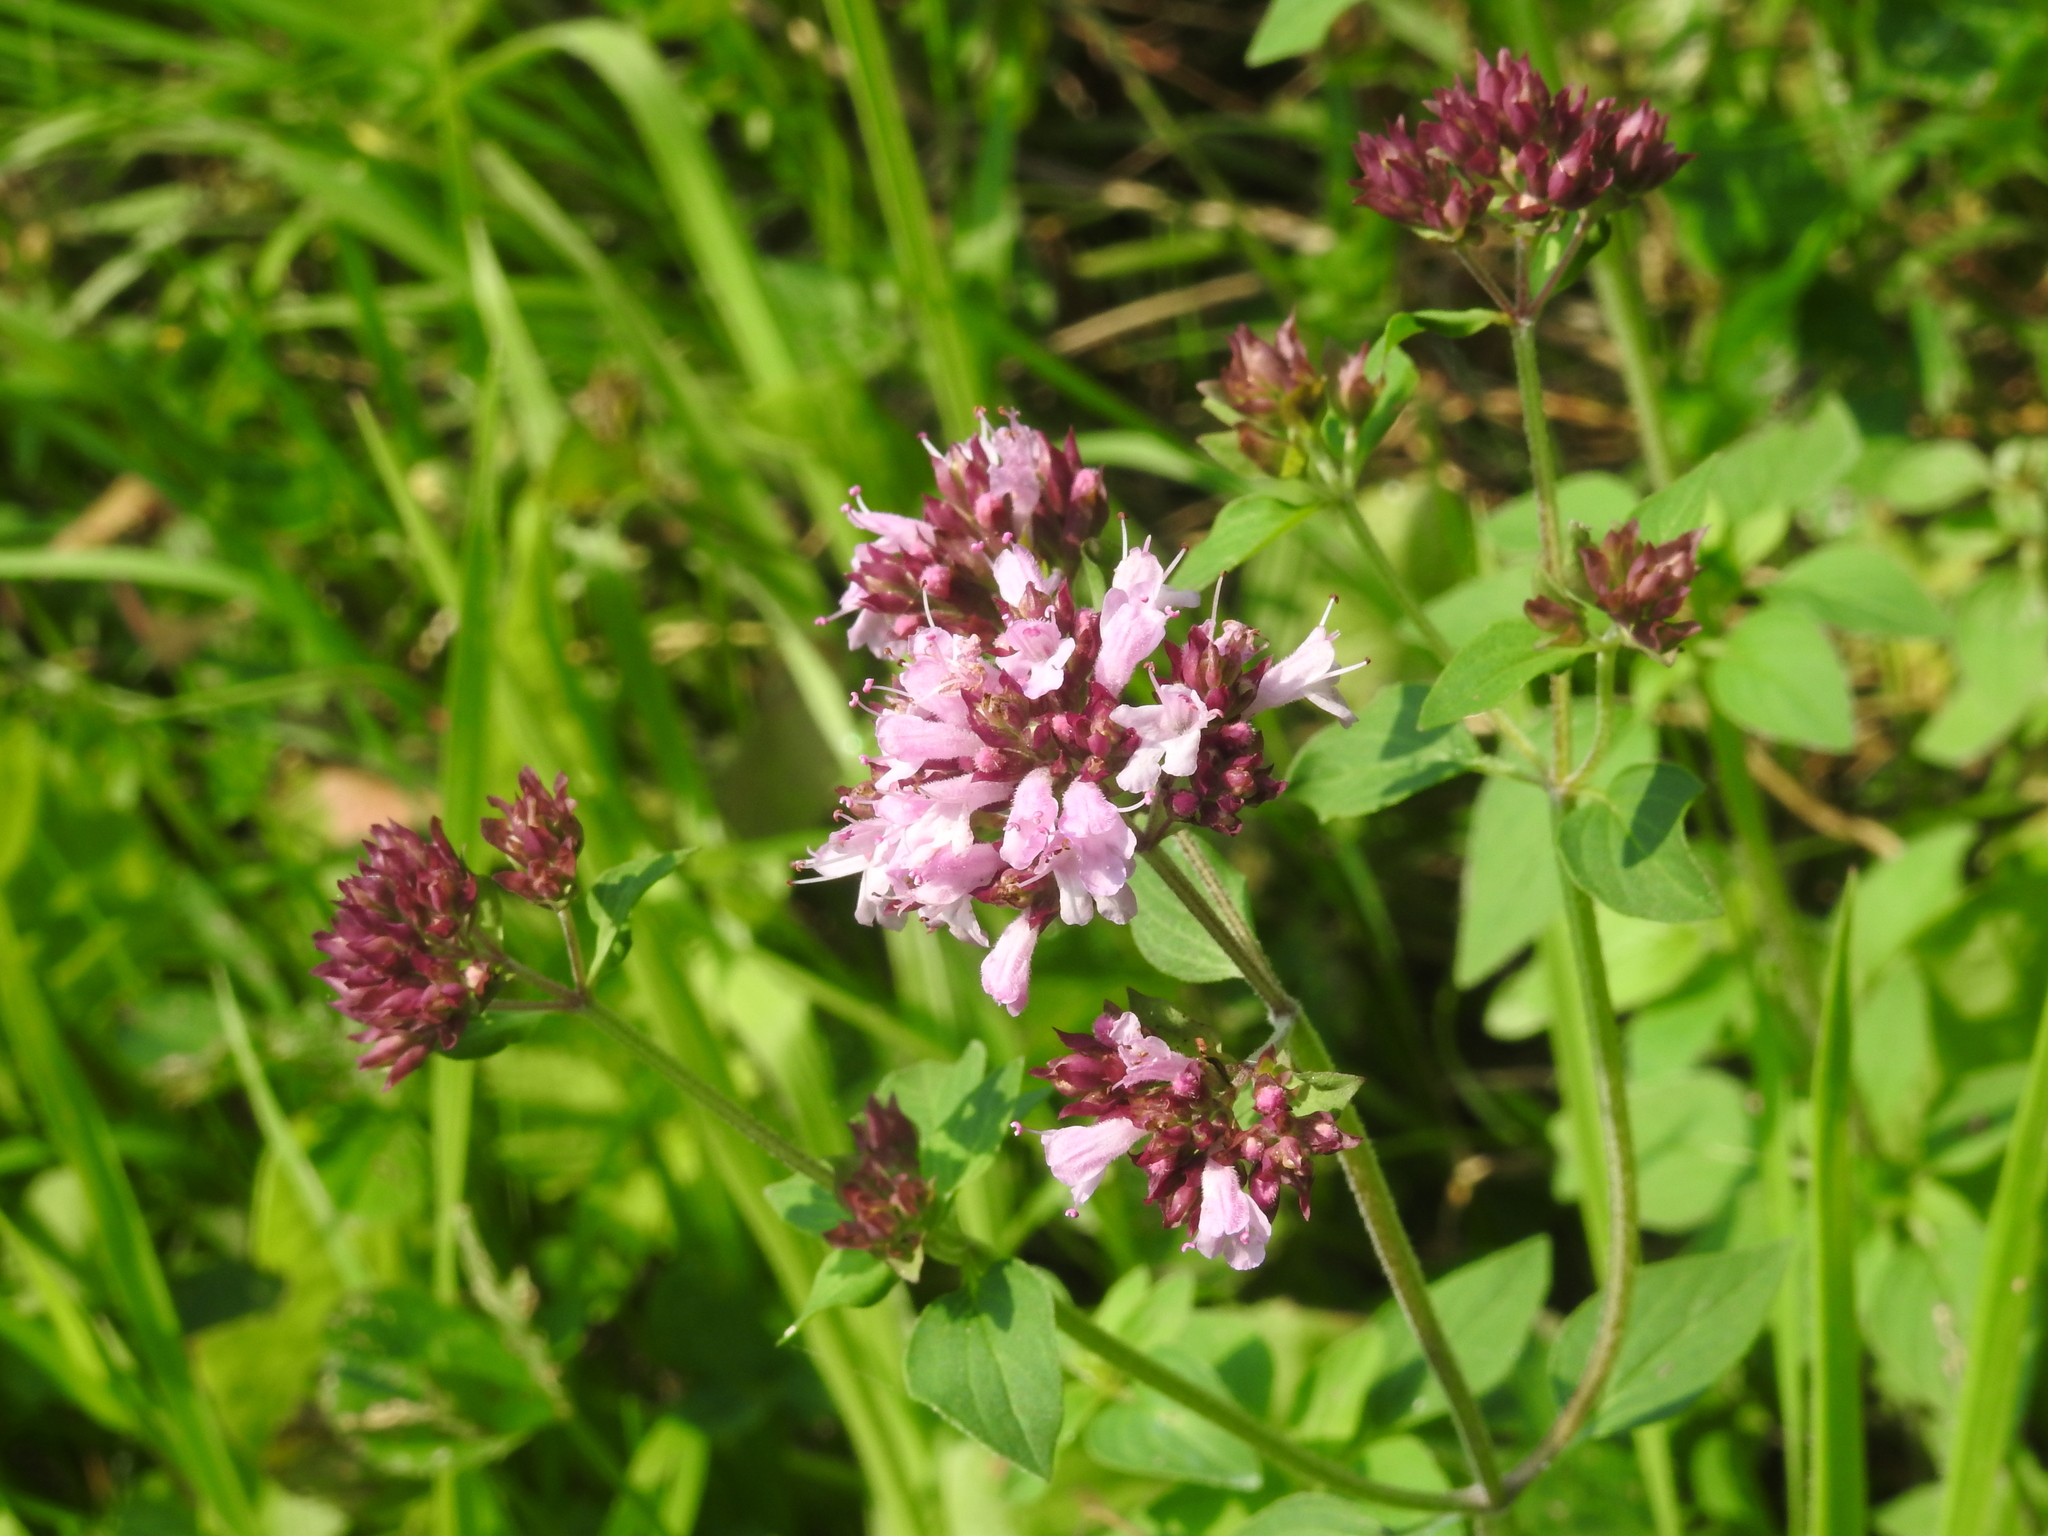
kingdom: Plantae
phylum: Tracheophyta
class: Magnoliopsida
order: Lamiales
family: Lamiaceae
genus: Origanum
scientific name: Origanum vulgare
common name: Wild marjoram
